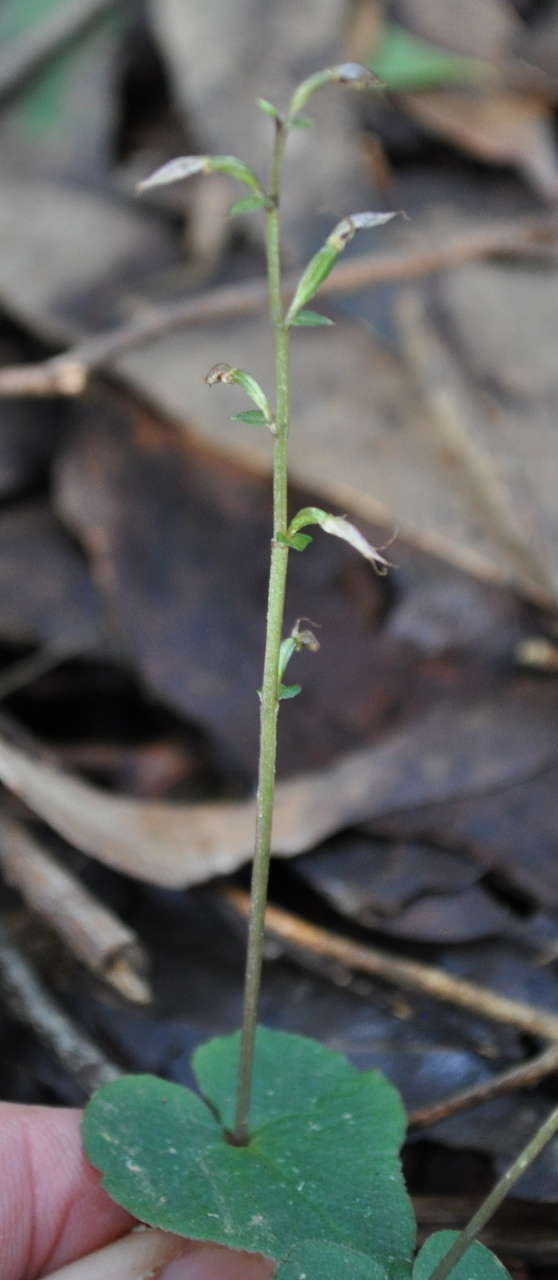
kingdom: Plantae
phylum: Tracheophyta
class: Liliopsida
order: Asparagales
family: Orchidaceae
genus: Acianthus
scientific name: Acianthus pusillus
